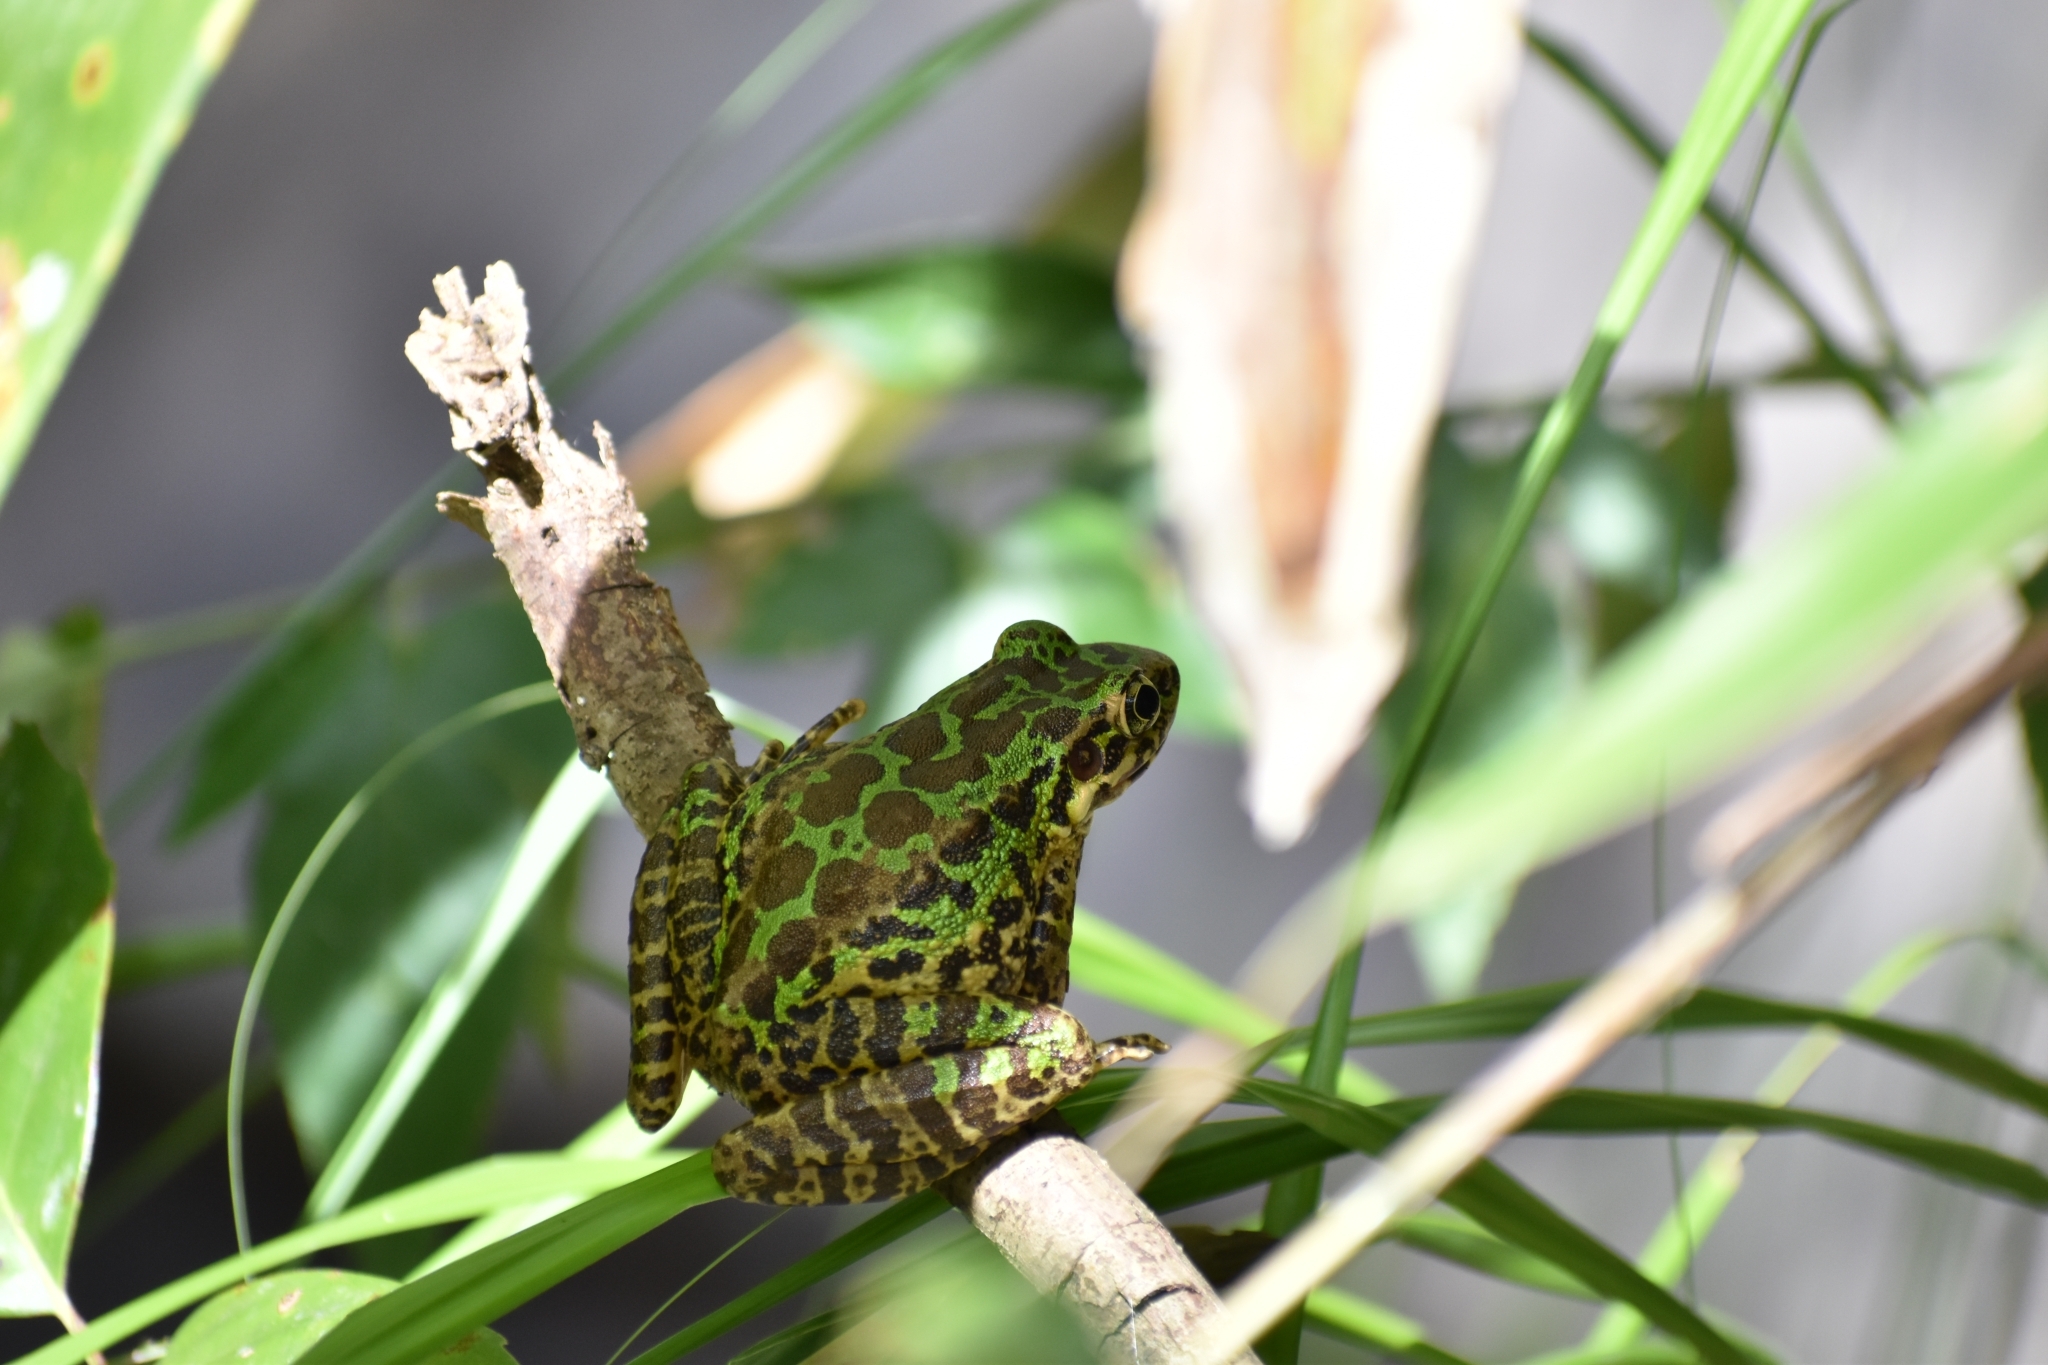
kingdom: Animalia
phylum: Chordata
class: Amphibia
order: Anura
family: Ranidae
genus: Odorrana
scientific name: Odorrana tianmuii
